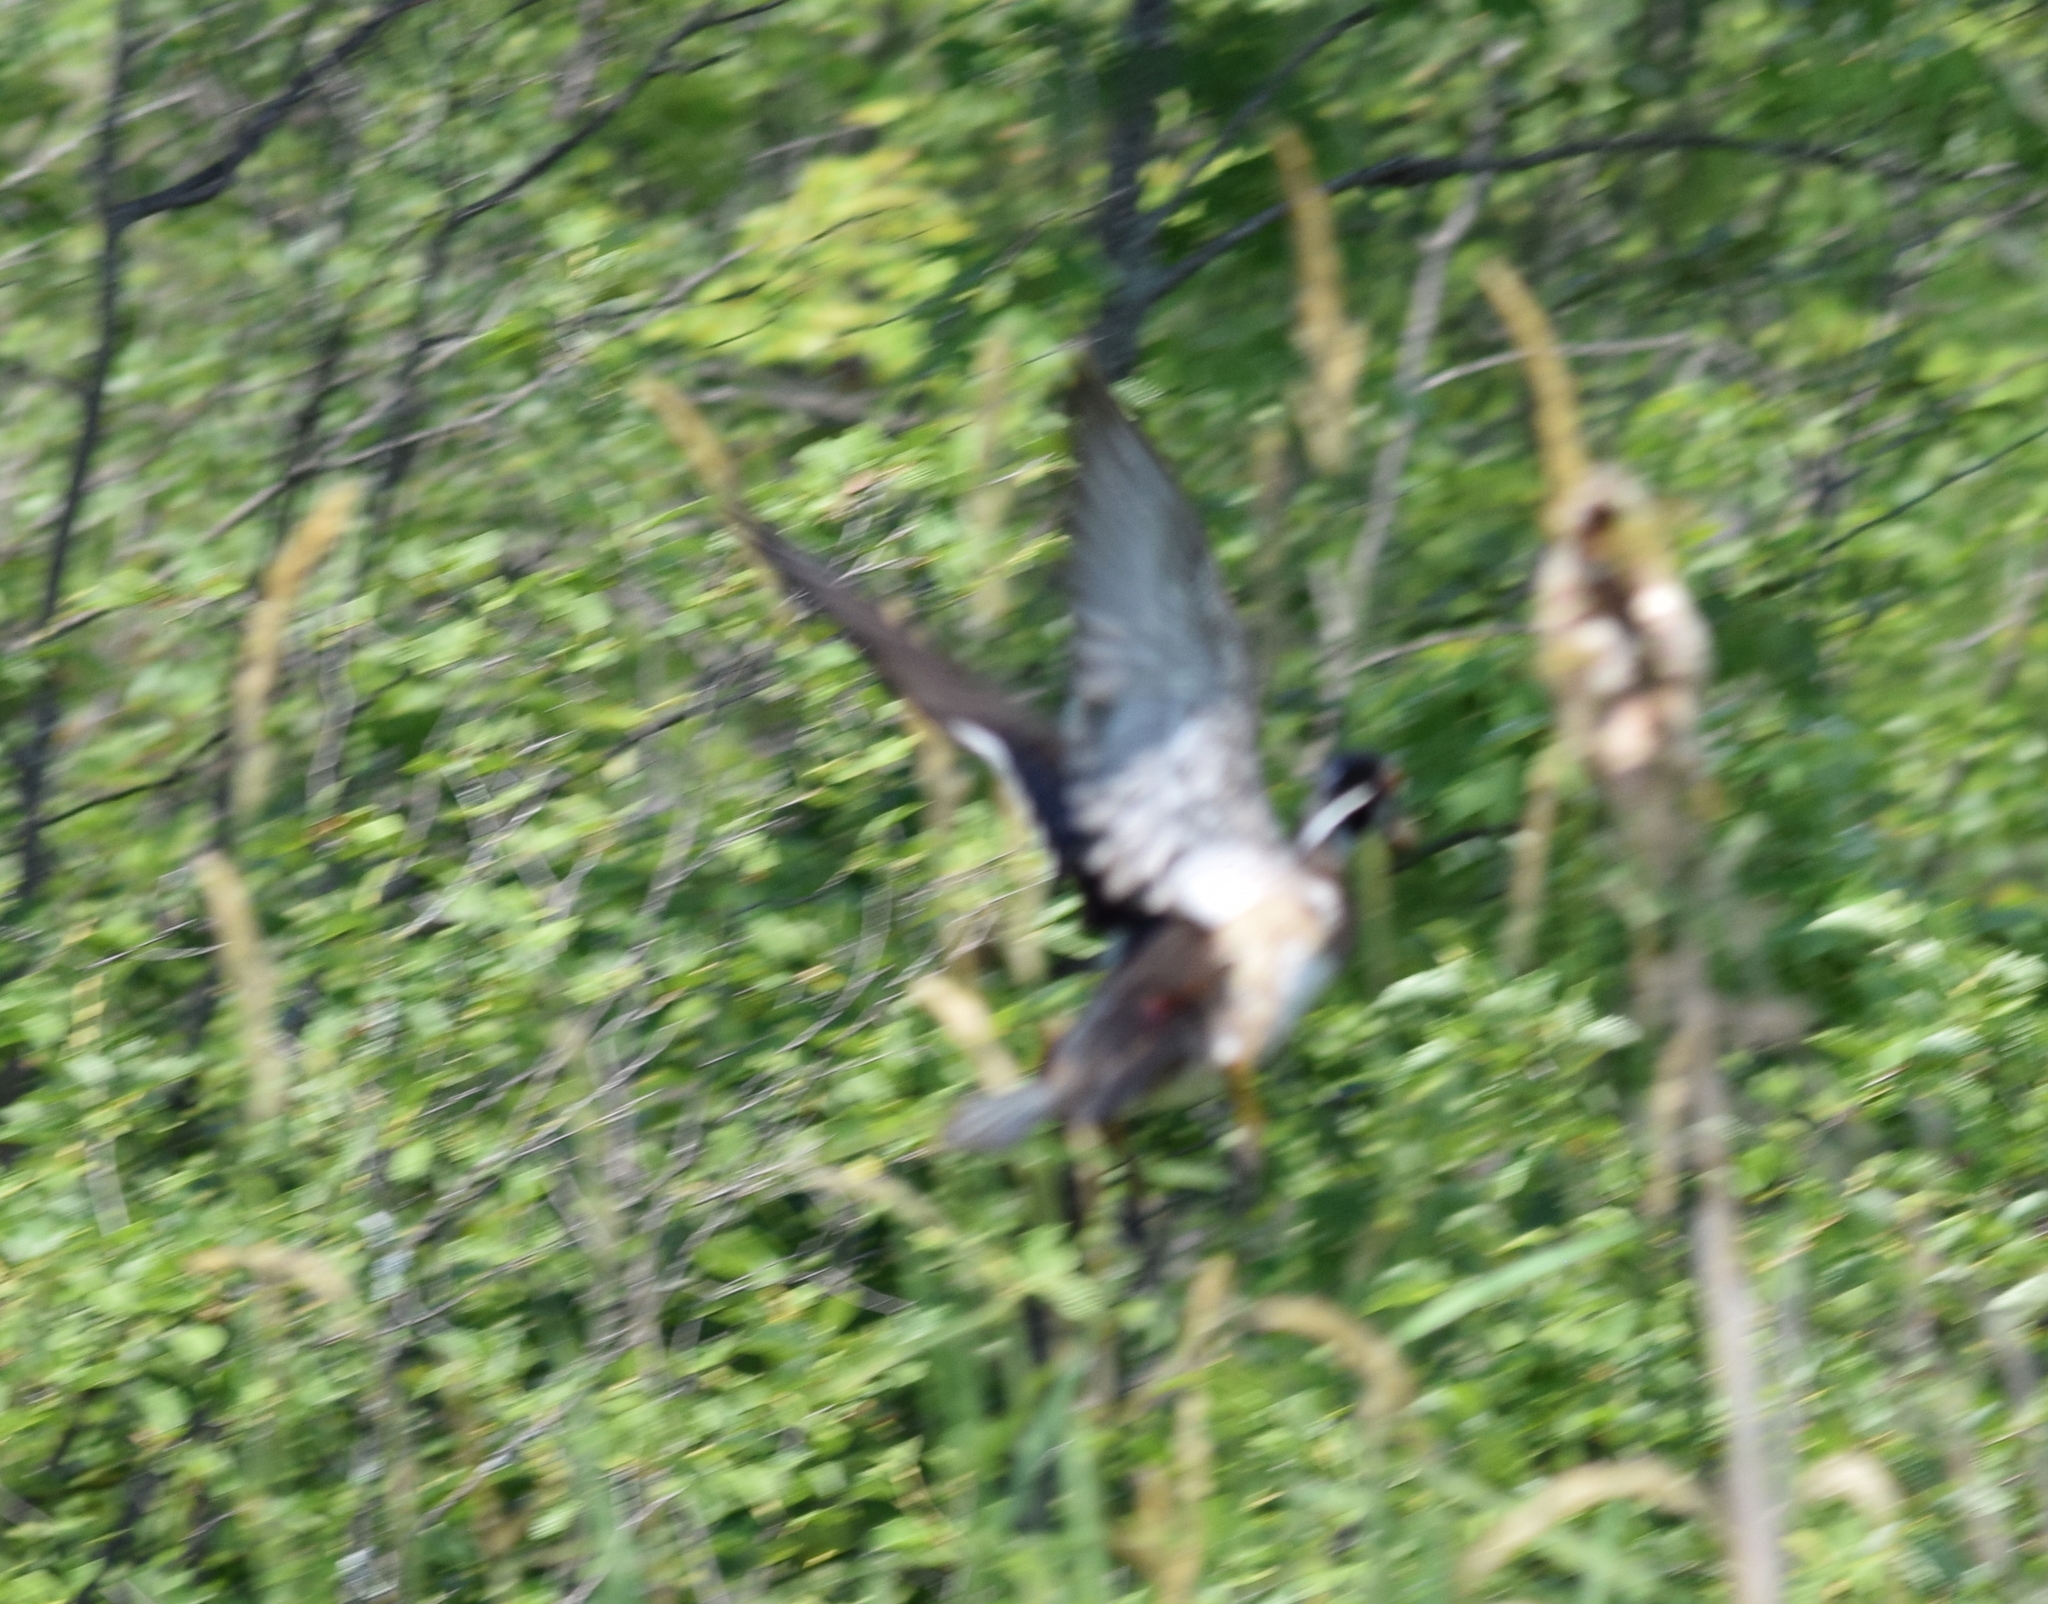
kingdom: Animalia
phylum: Chordata
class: Aves
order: Anseriformes
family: Anatidae
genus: Aix
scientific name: Aix sponsa
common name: Wood duck
